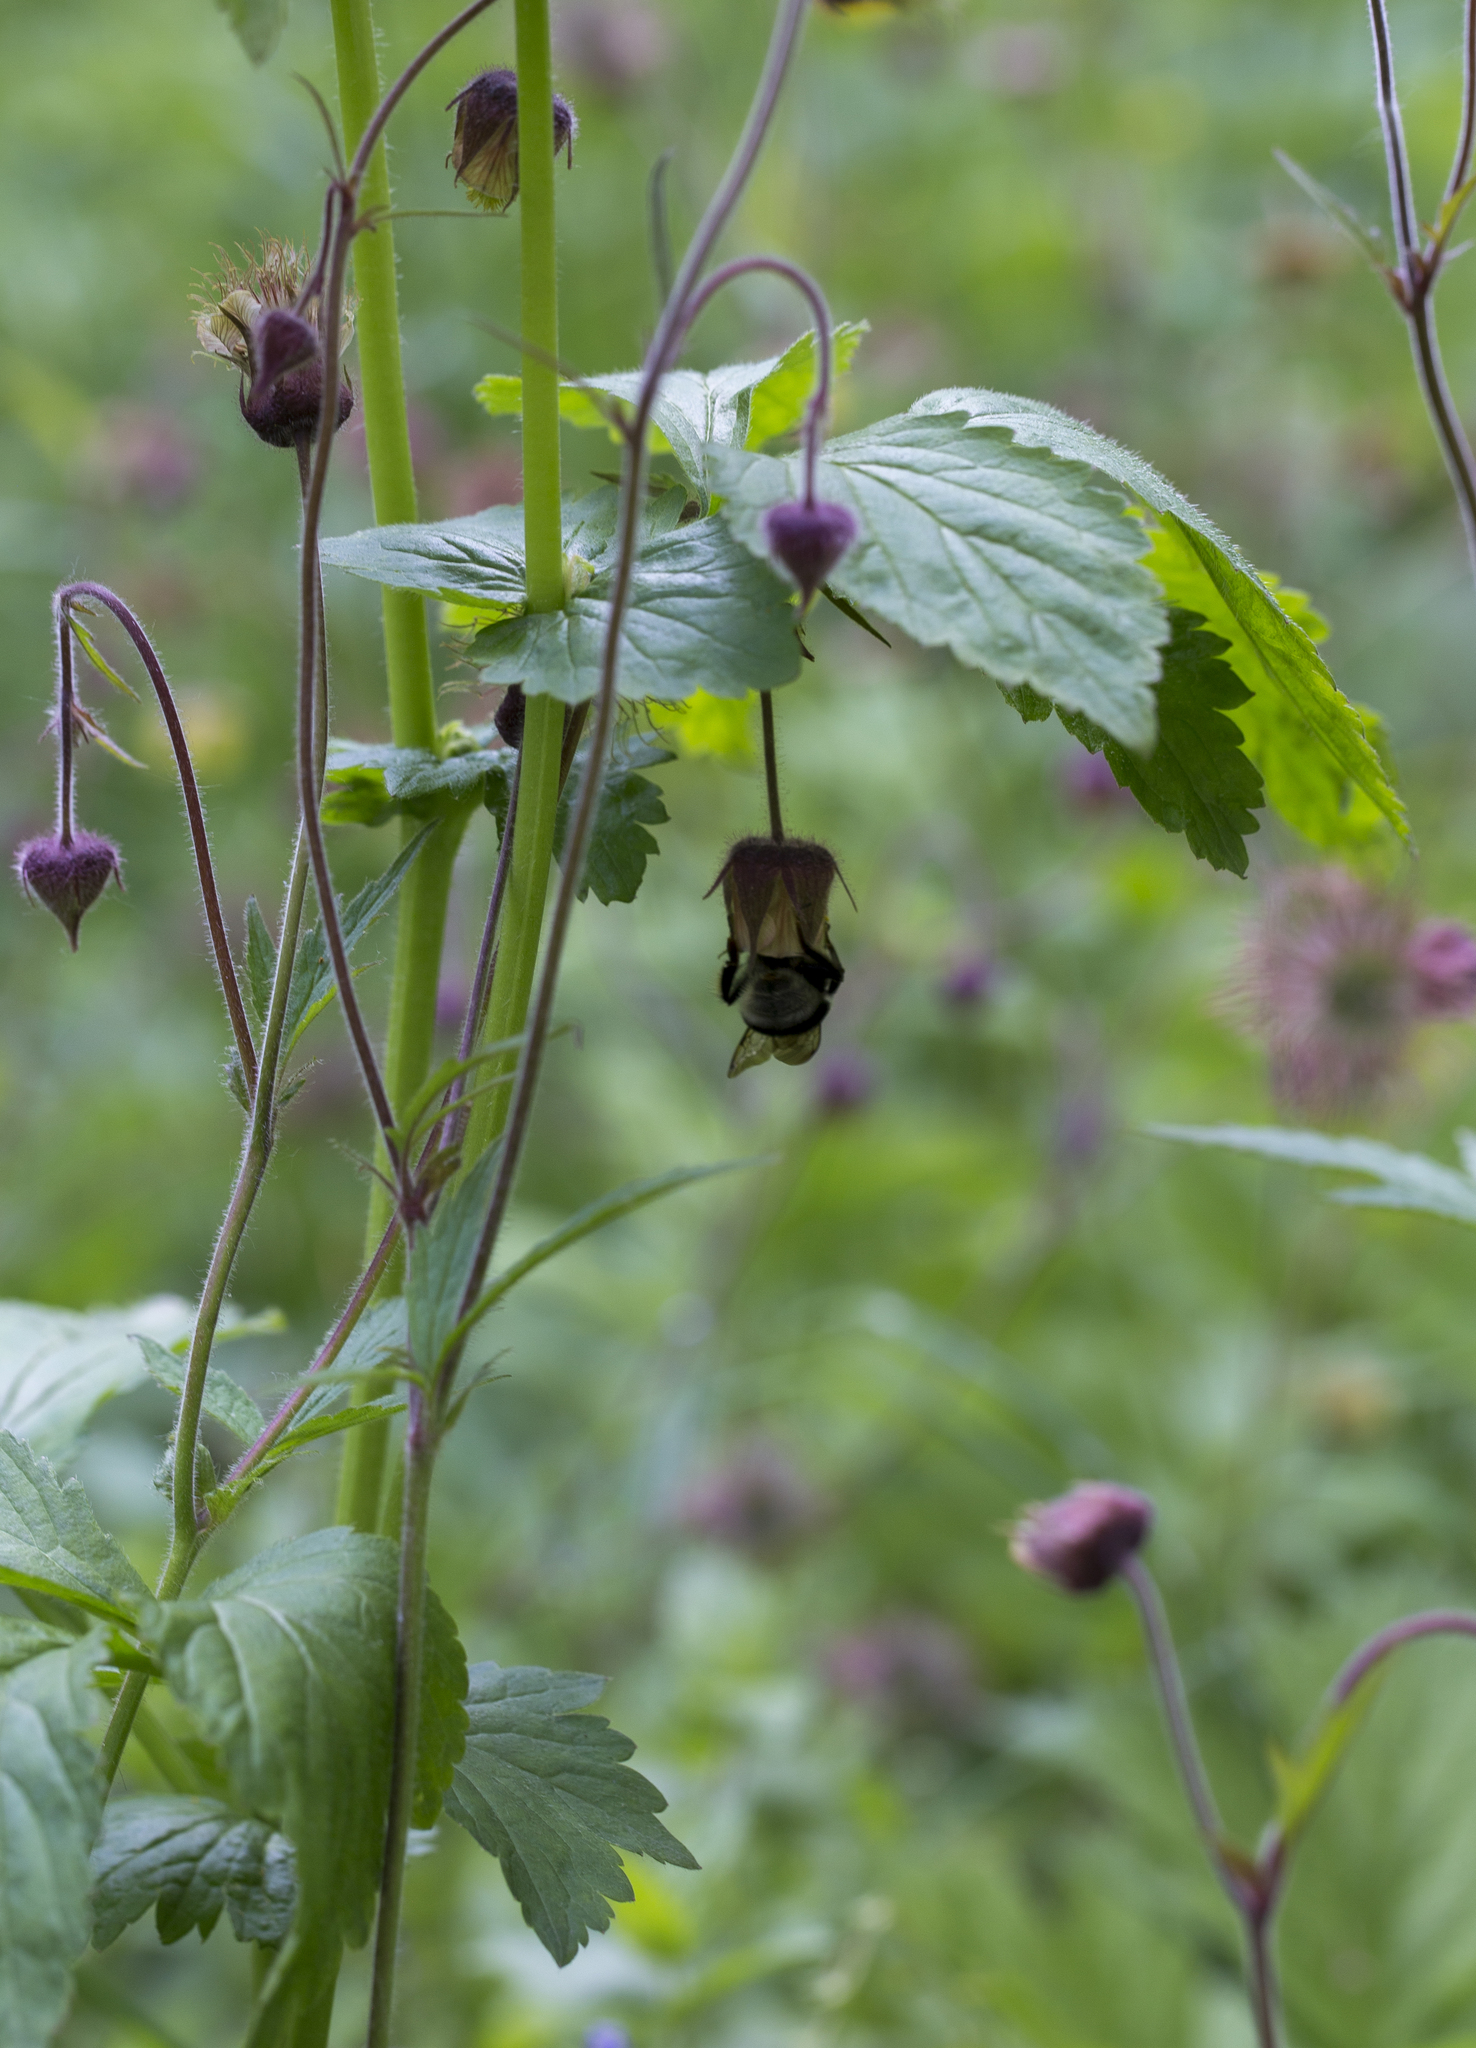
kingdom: Animalia
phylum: Arthropoda
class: Insecta
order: Hymenoptera
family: Apidae
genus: Bombus
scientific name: Bombus semenoviellus
